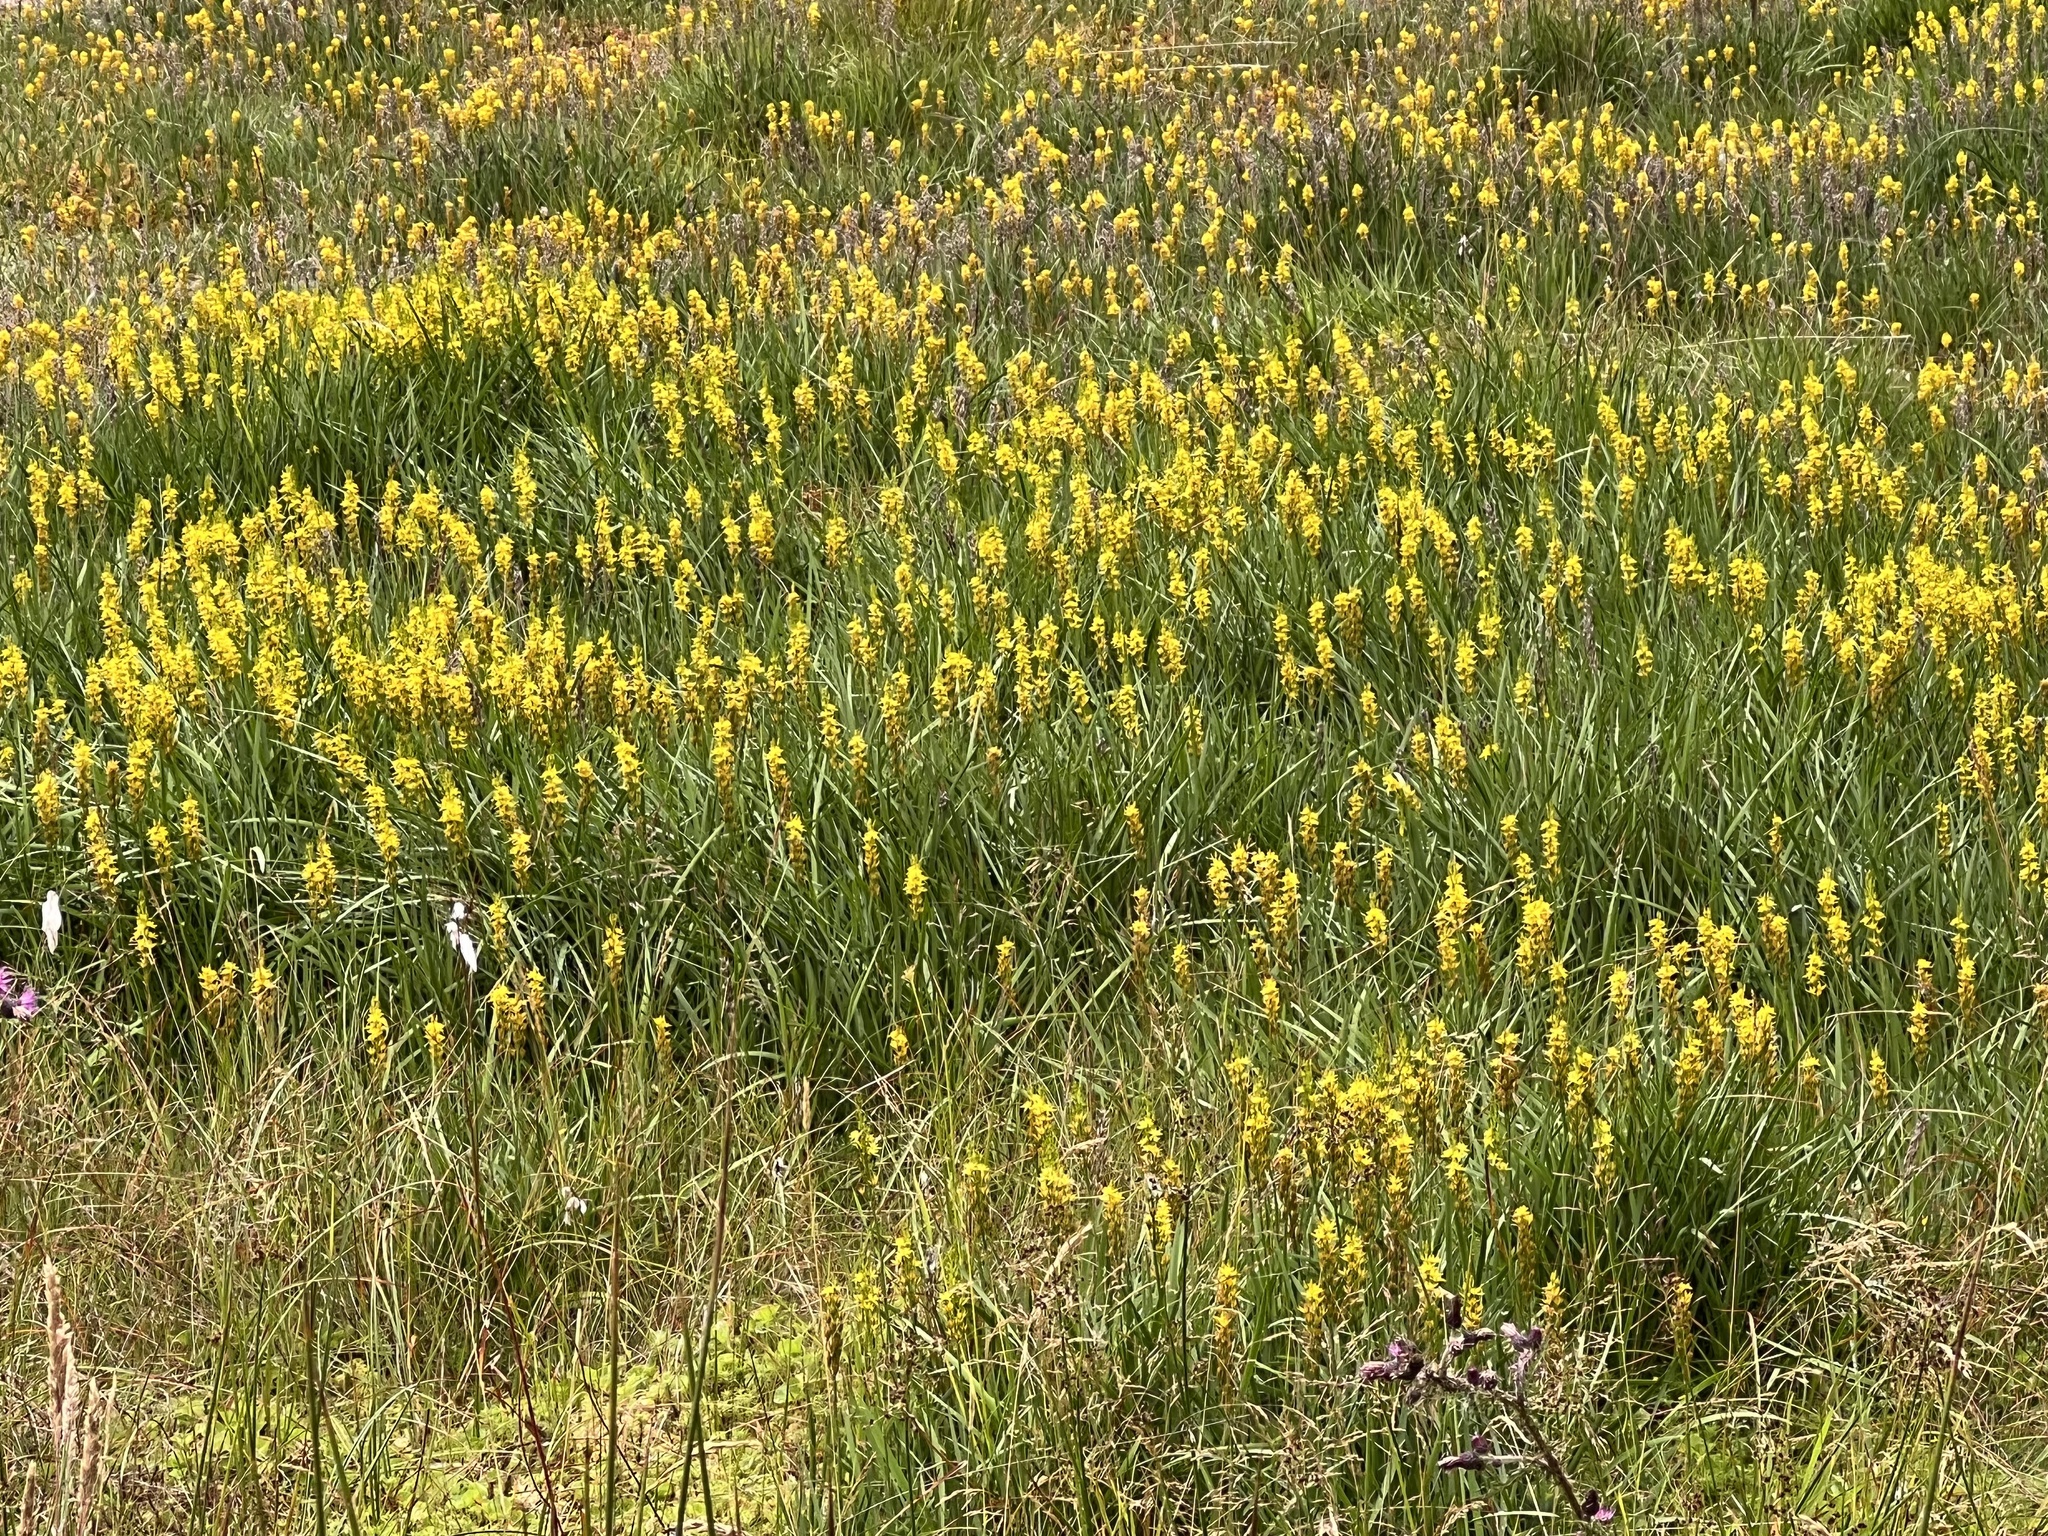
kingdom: Plantae
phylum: Tracheophyta
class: Liliopsida
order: Dioscoreales
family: Nartheciaceae
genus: Narthecium
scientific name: Narthecium ossifragum
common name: Bog asphodel
